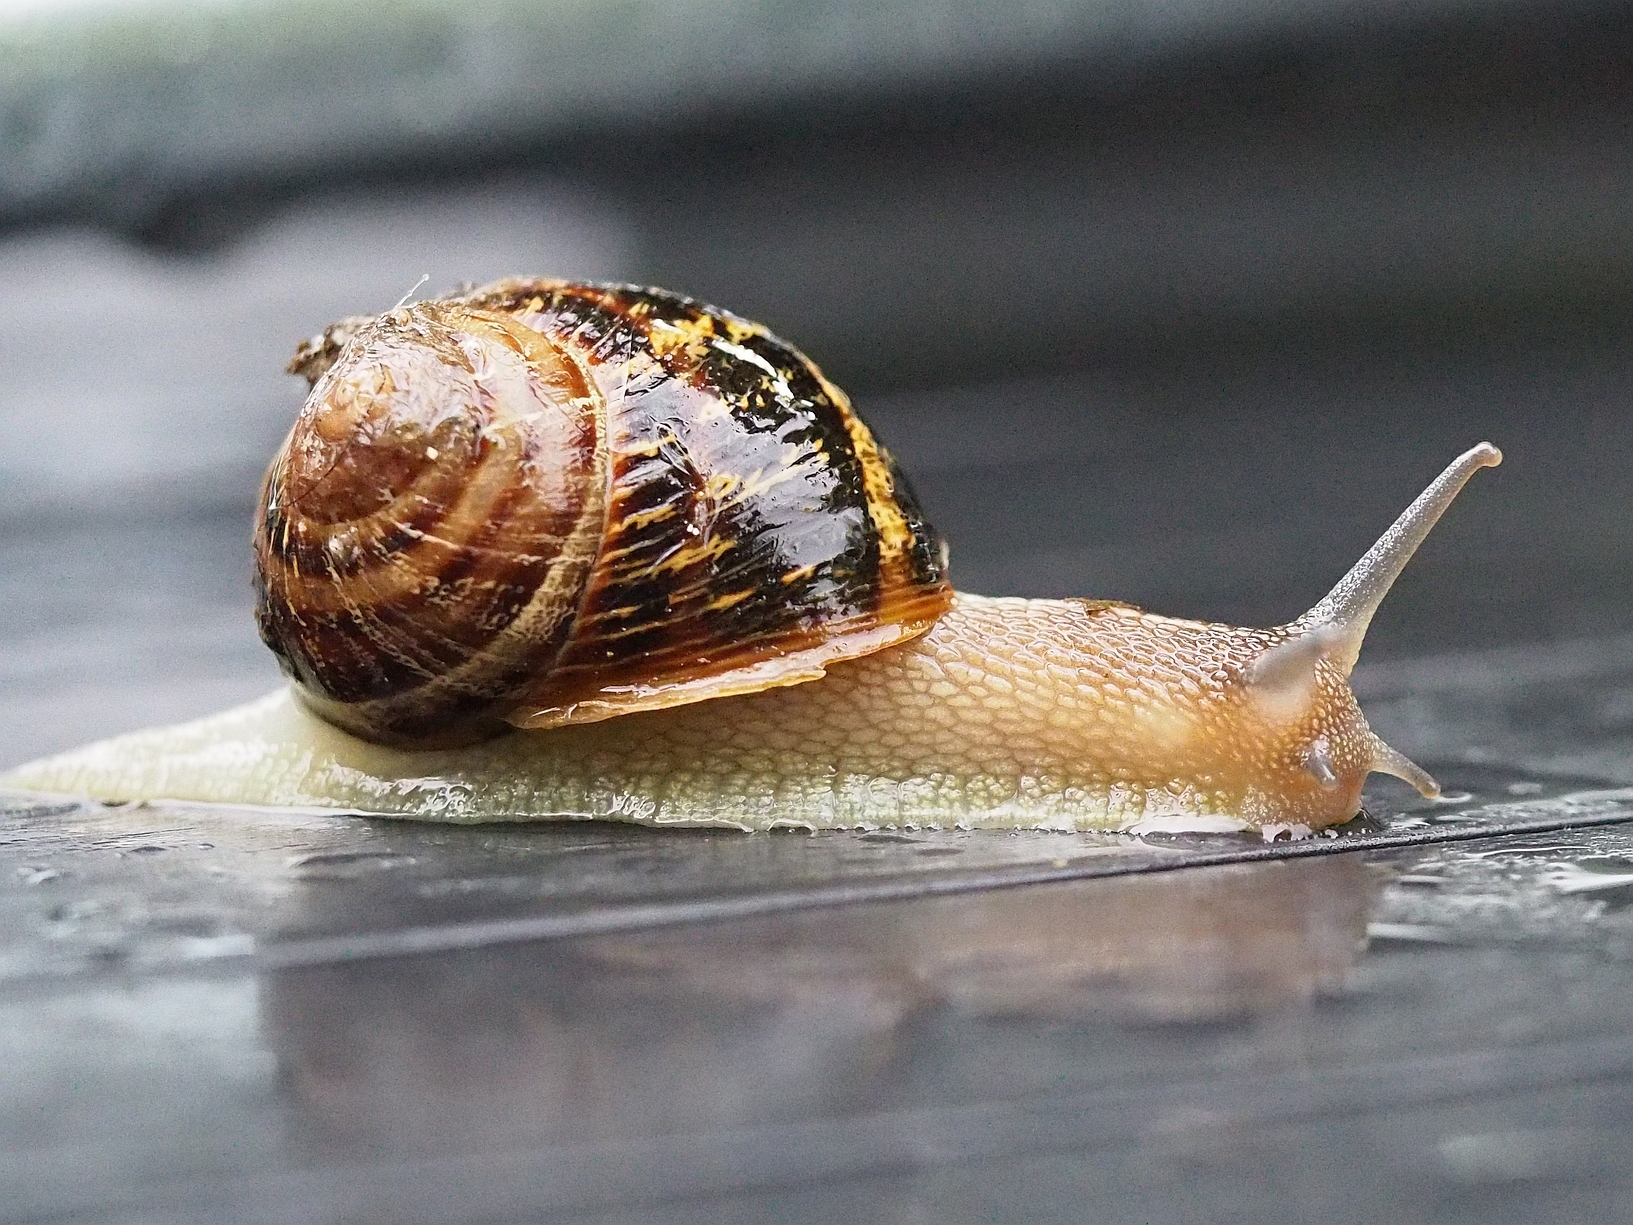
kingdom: Animalia
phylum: Mollusca
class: Gastropoda
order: Stylommatophora
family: Helicidae
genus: Cornu
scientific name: Cornu aspersum
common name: Brown garden snail
